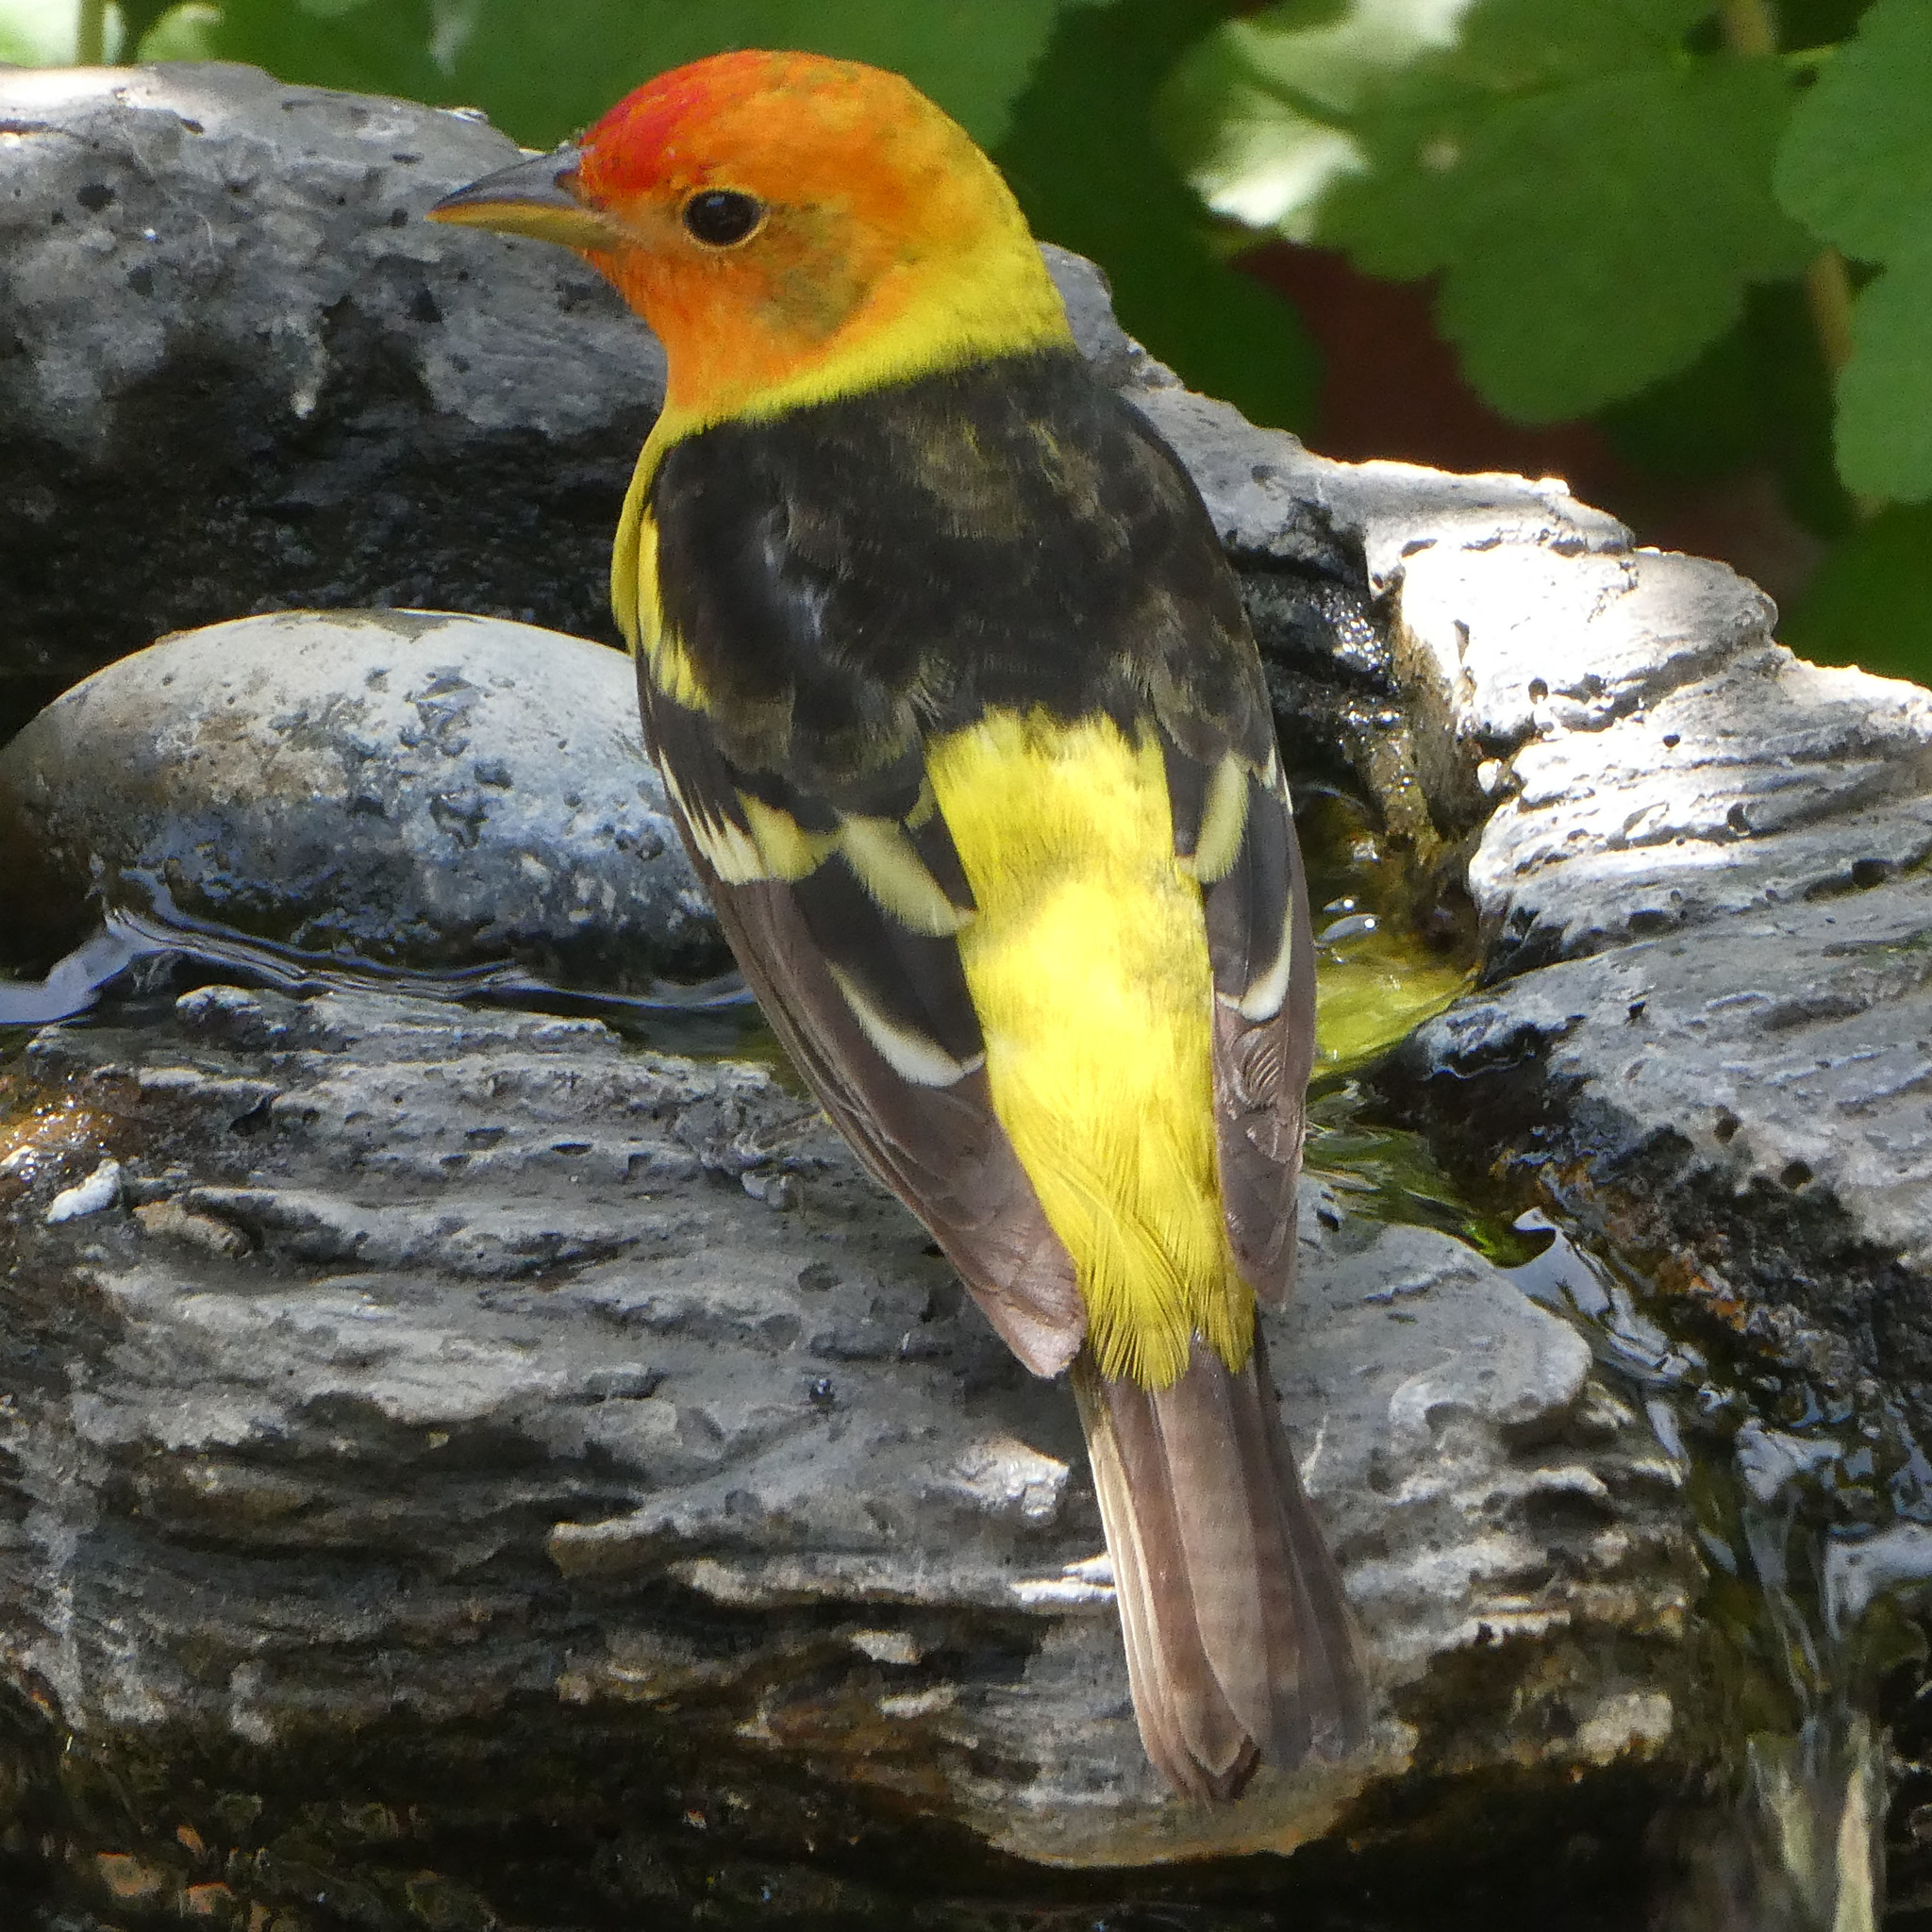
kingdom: Animalia
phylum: Chordata
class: Aves
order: Passeriformes
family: Cardinalidae
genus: Piranga
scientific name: Piranga ludoviciana
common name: Western tanager
